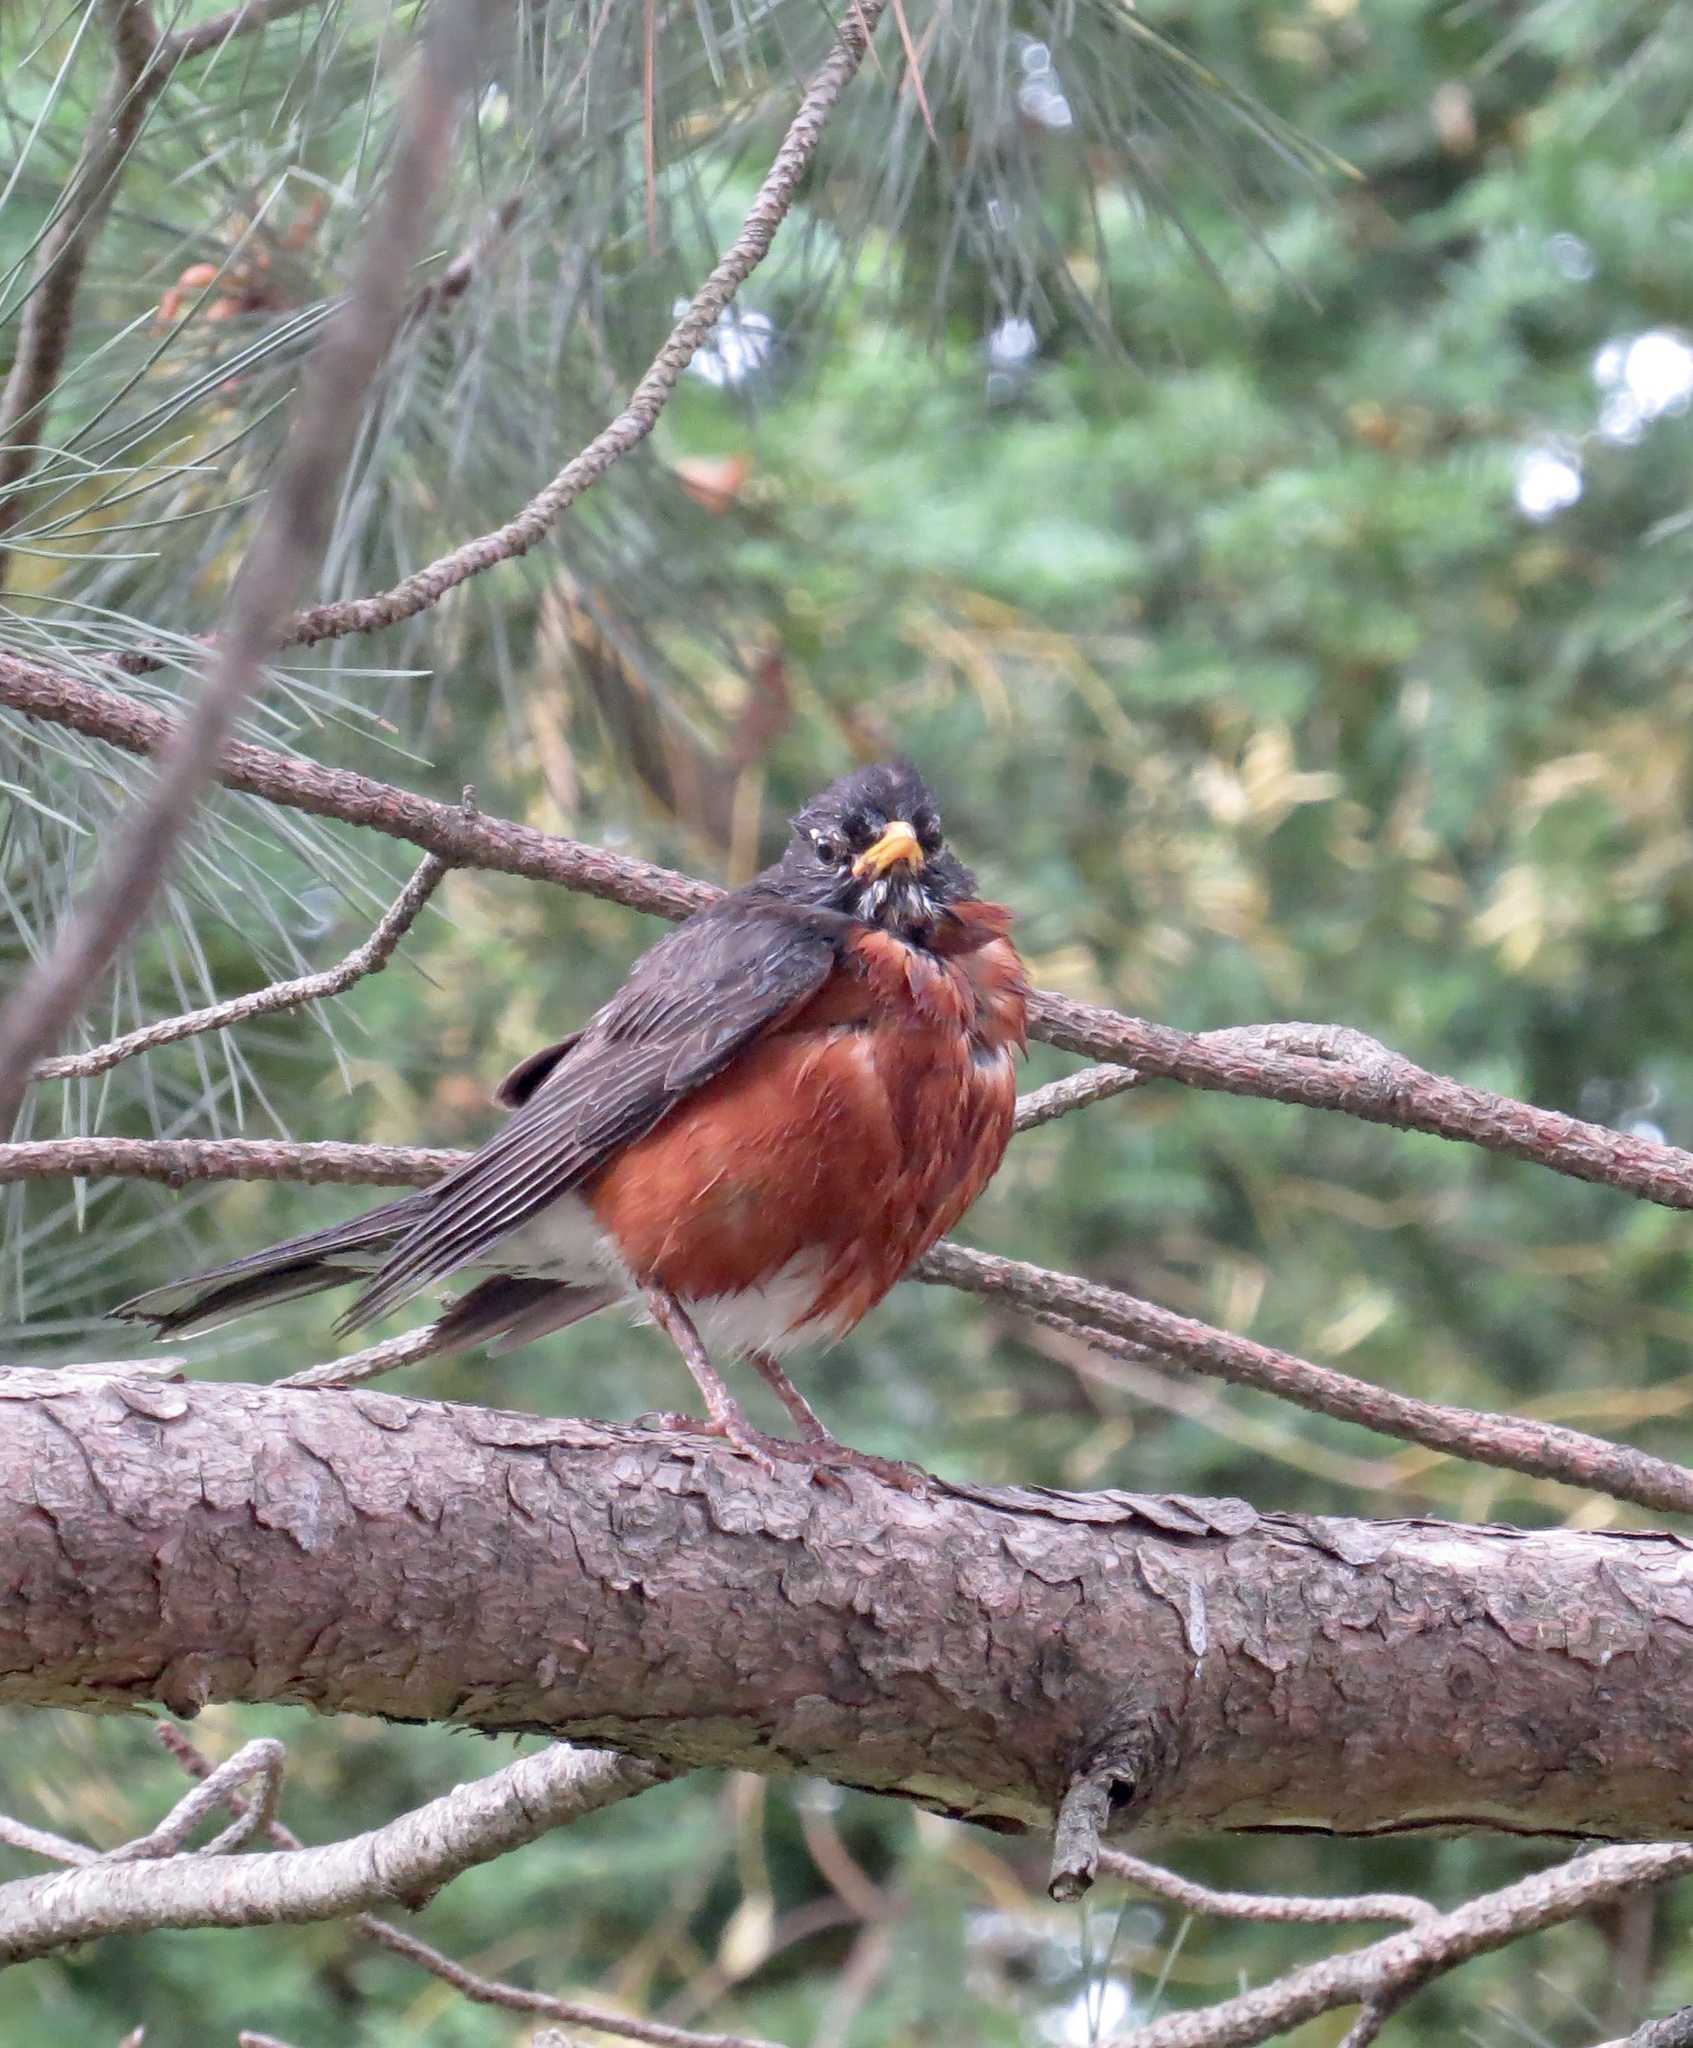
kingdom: Animalia
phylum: Chordata
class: Aves
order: Passeriformes
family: Turdidae
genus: Turdus
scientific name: Turdus migratorius
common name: American robin
